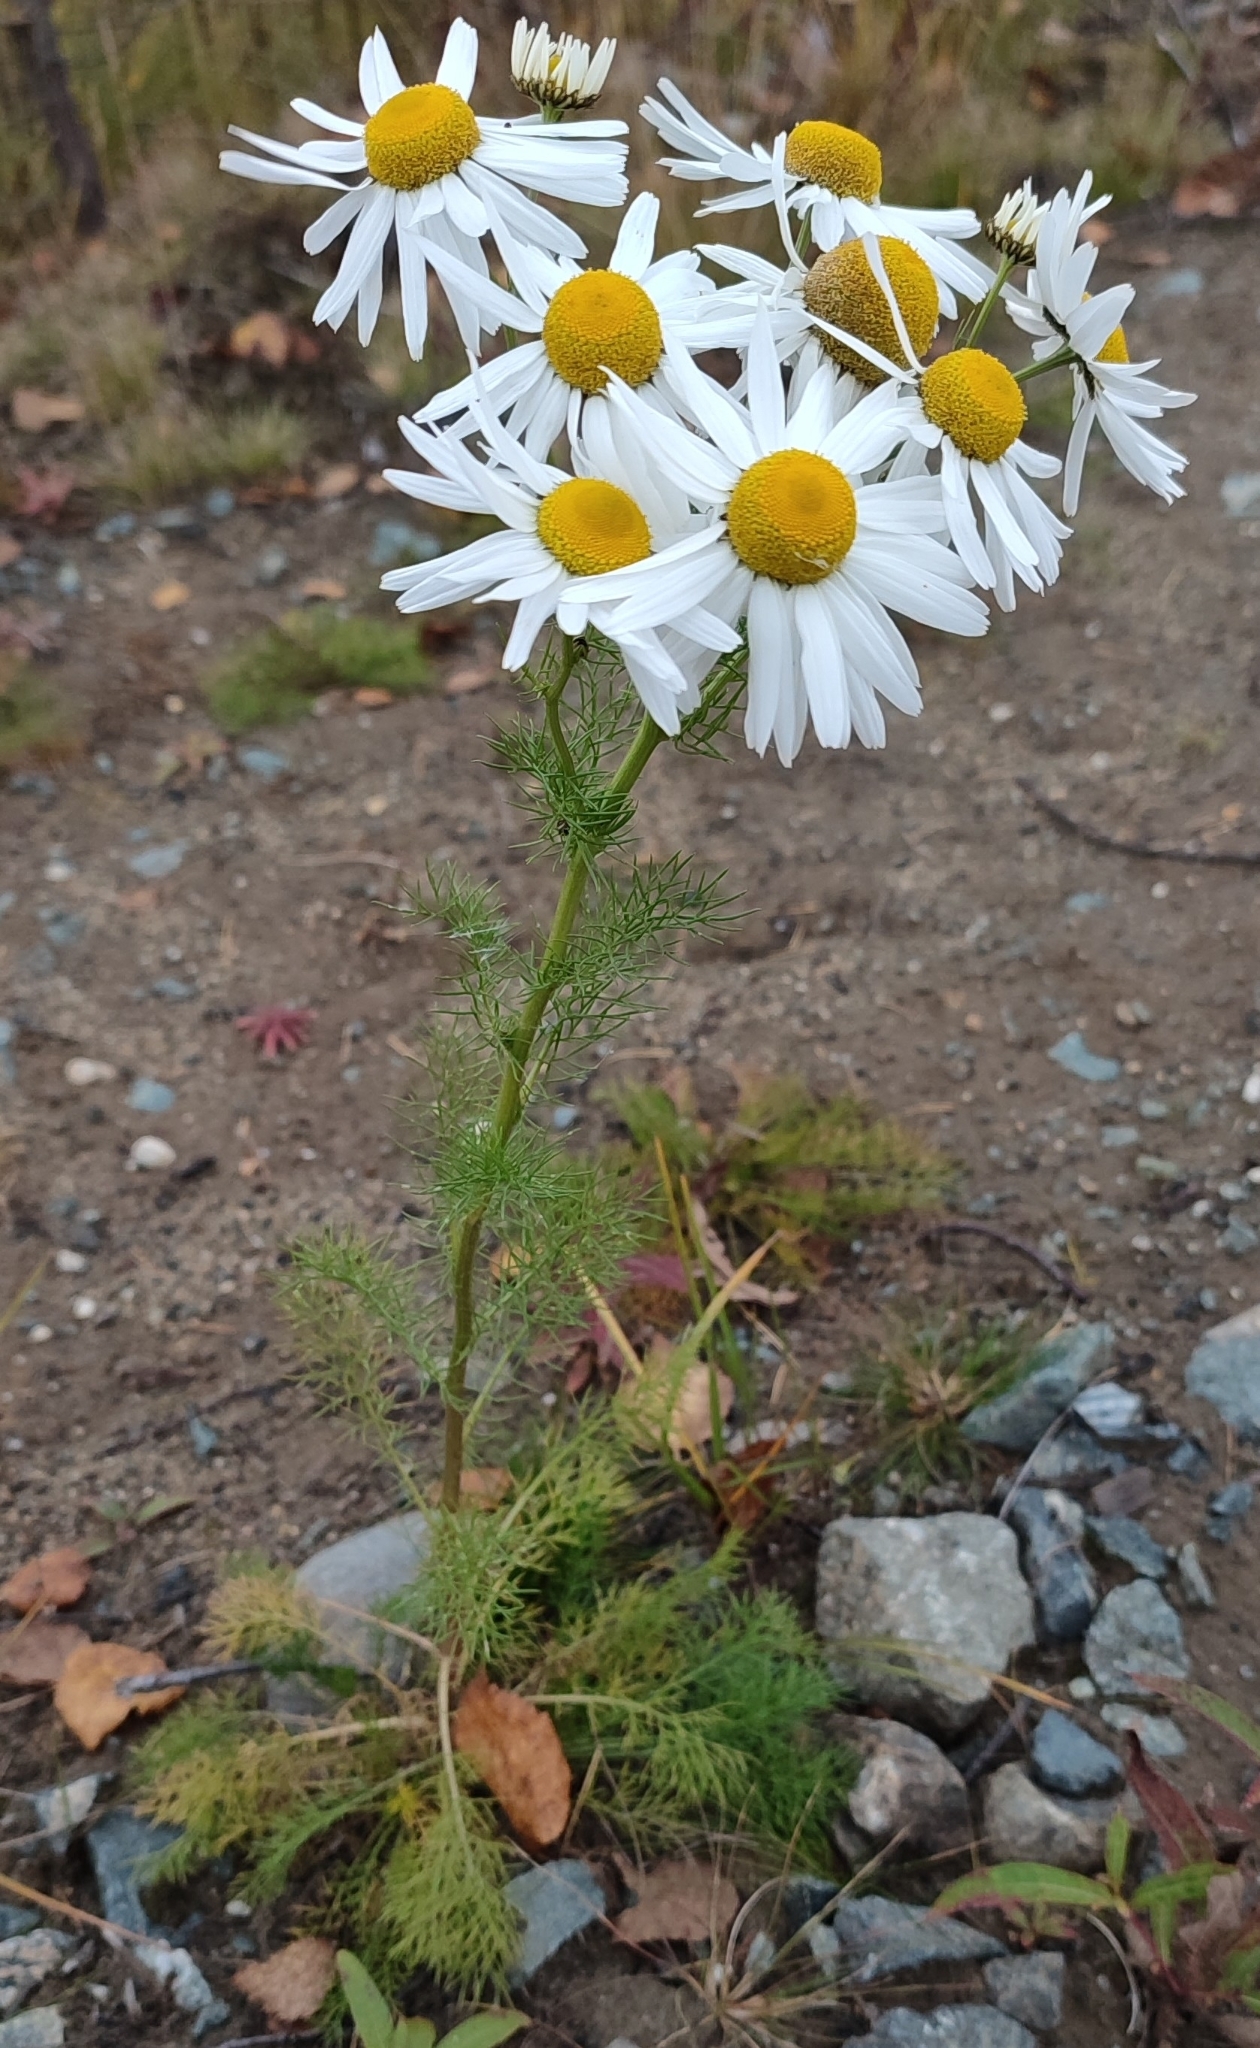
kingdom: Plantae
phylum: Tracheophyta
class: Magnoliopsida
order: Asterales
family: Asteraceae
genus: Tripleurospermum
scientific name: Tripleurospermum hookeri
